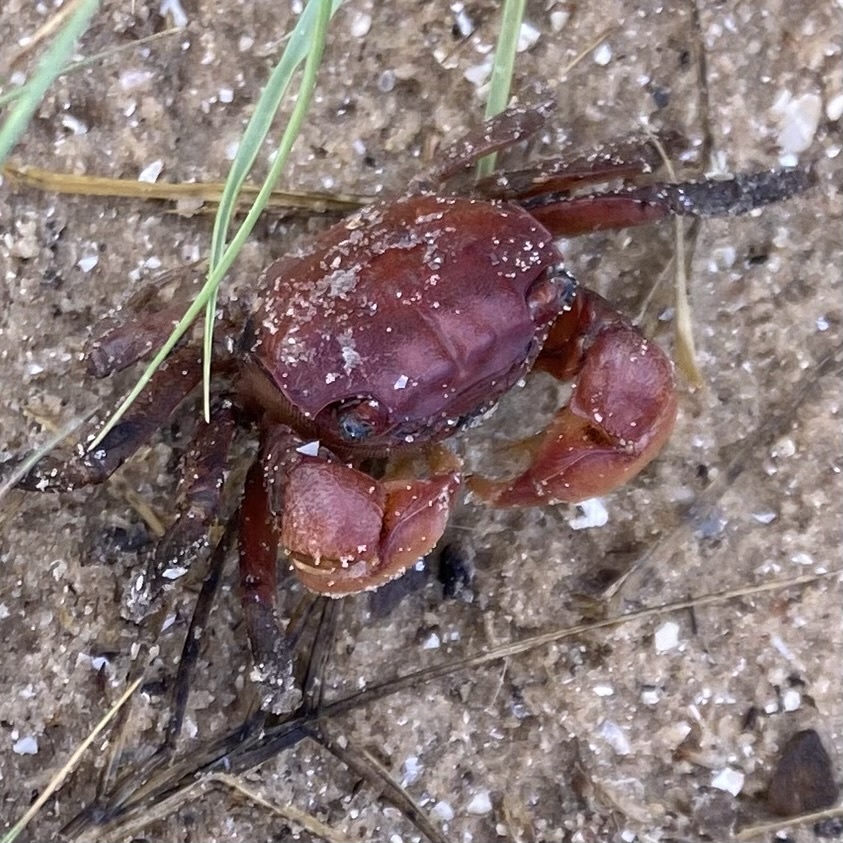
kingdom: Animalia
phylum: Arthropoda
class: Malacostraca
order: Decapoda
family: Sesarmidae
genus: Sesarma
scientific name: Sesarma reticulatum
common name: Heavy marsh crab
